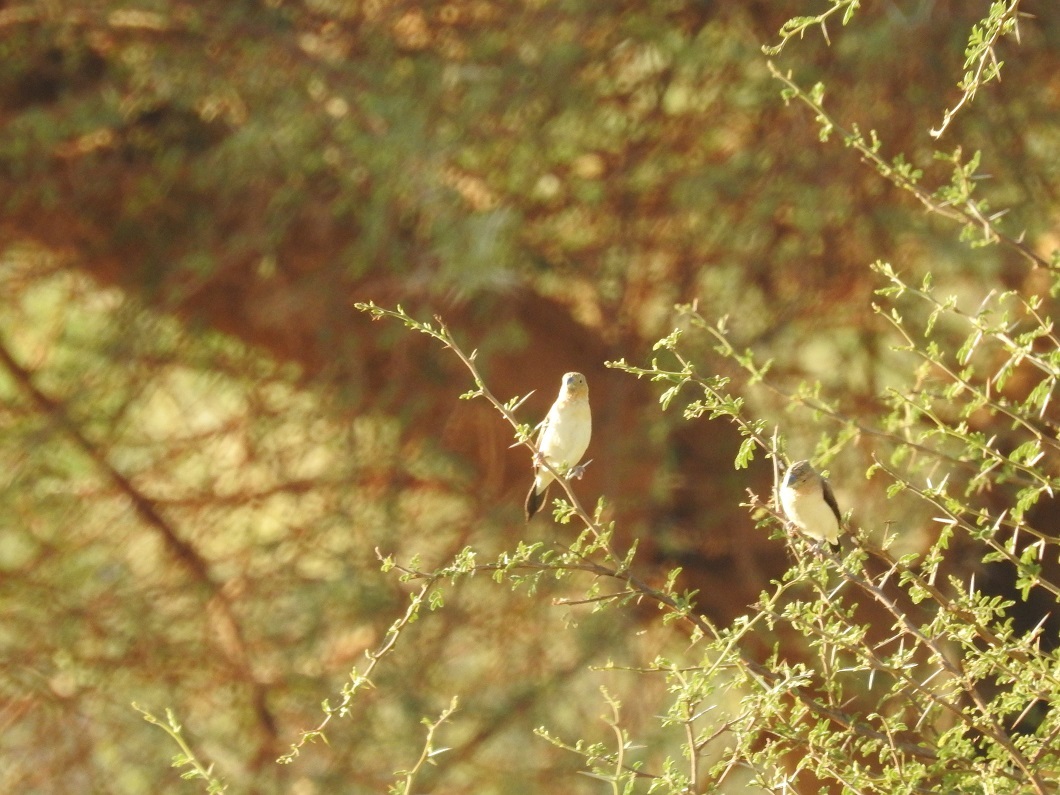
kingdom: Animalia
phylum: Chordata
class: Aves
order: Passeriformes
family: Estrildidae
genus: Euodice
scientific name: Euodice cantans
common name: African silverbill
